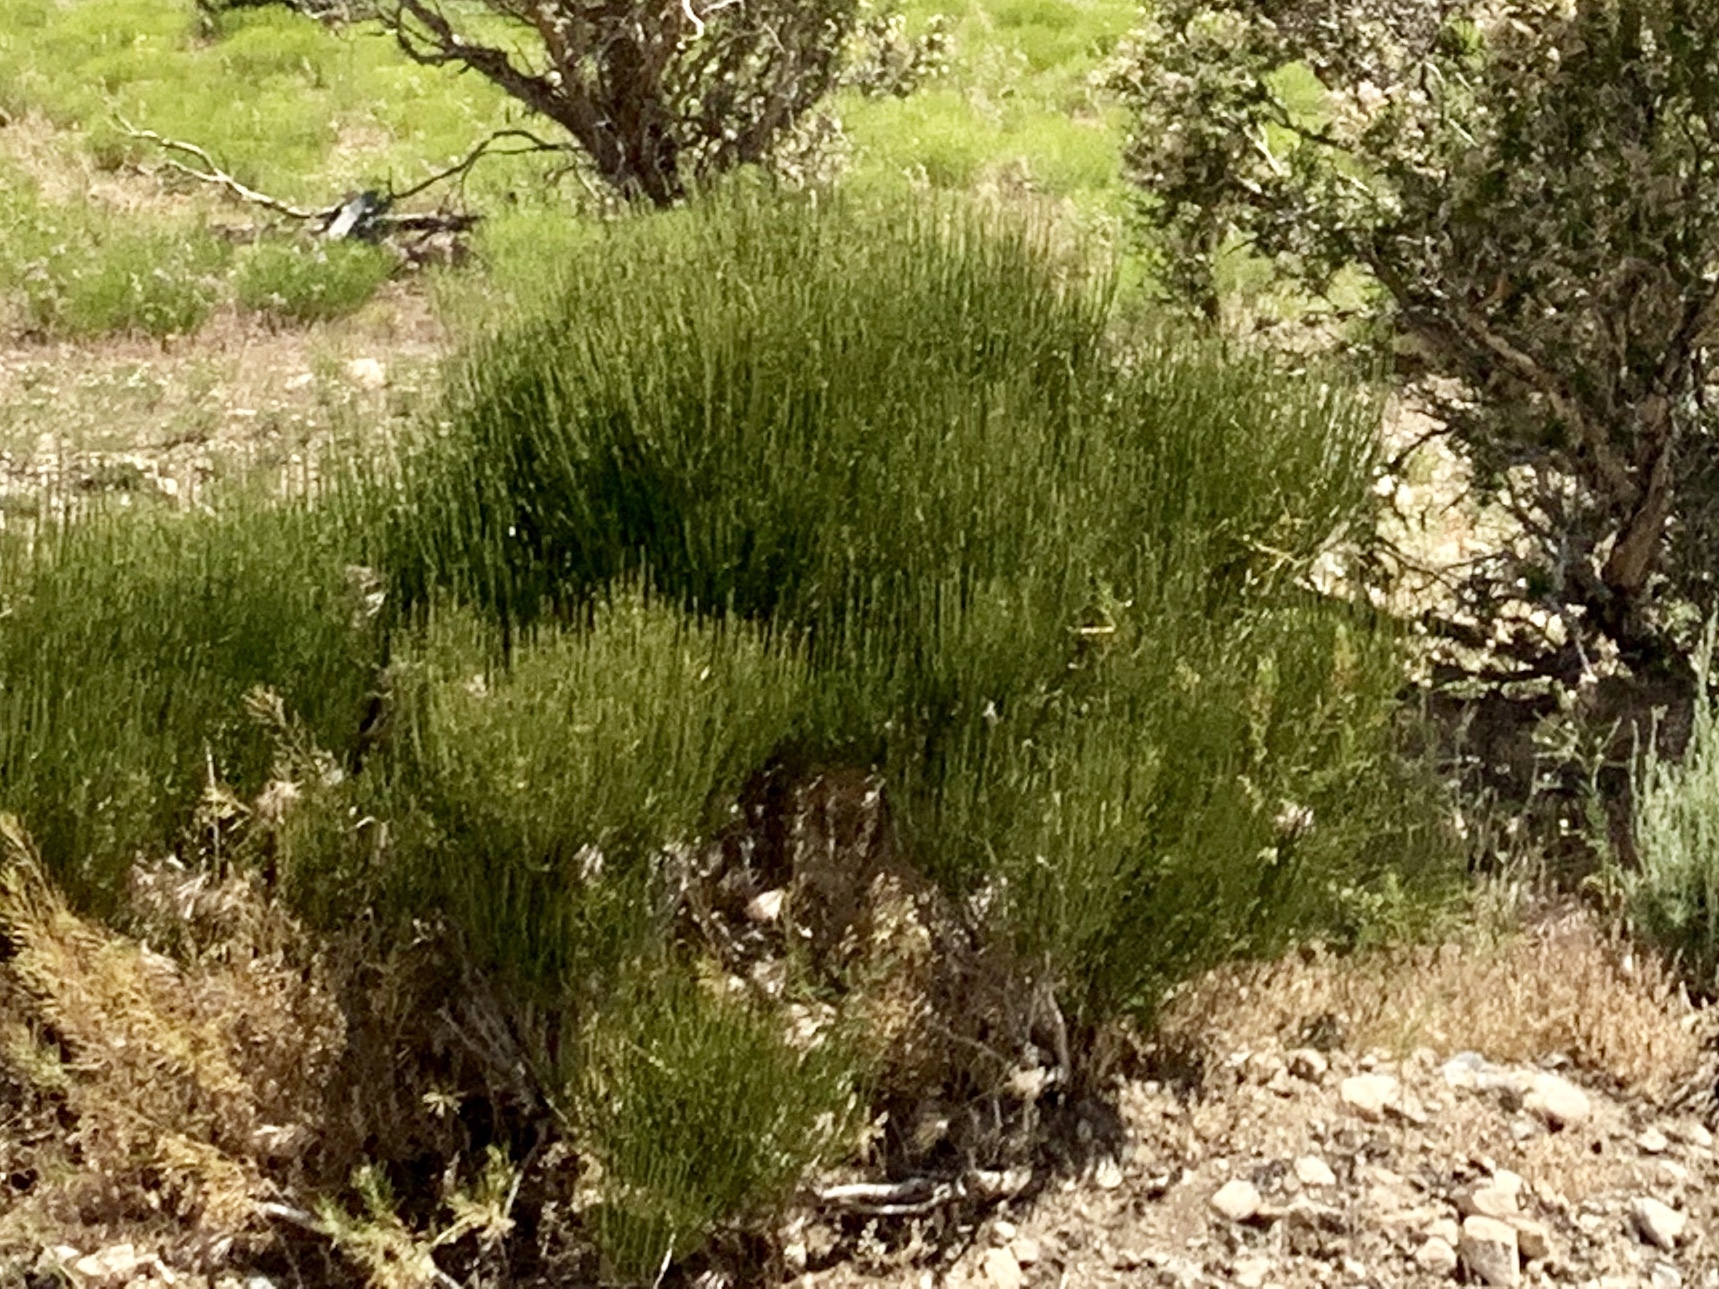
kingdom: Plantae
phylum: Tracheophyta
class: Gnetopsida
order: Ephedrales
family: Ephedraceae
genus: Ephedra
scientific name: Ephedra viridis
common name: Green ephedra
